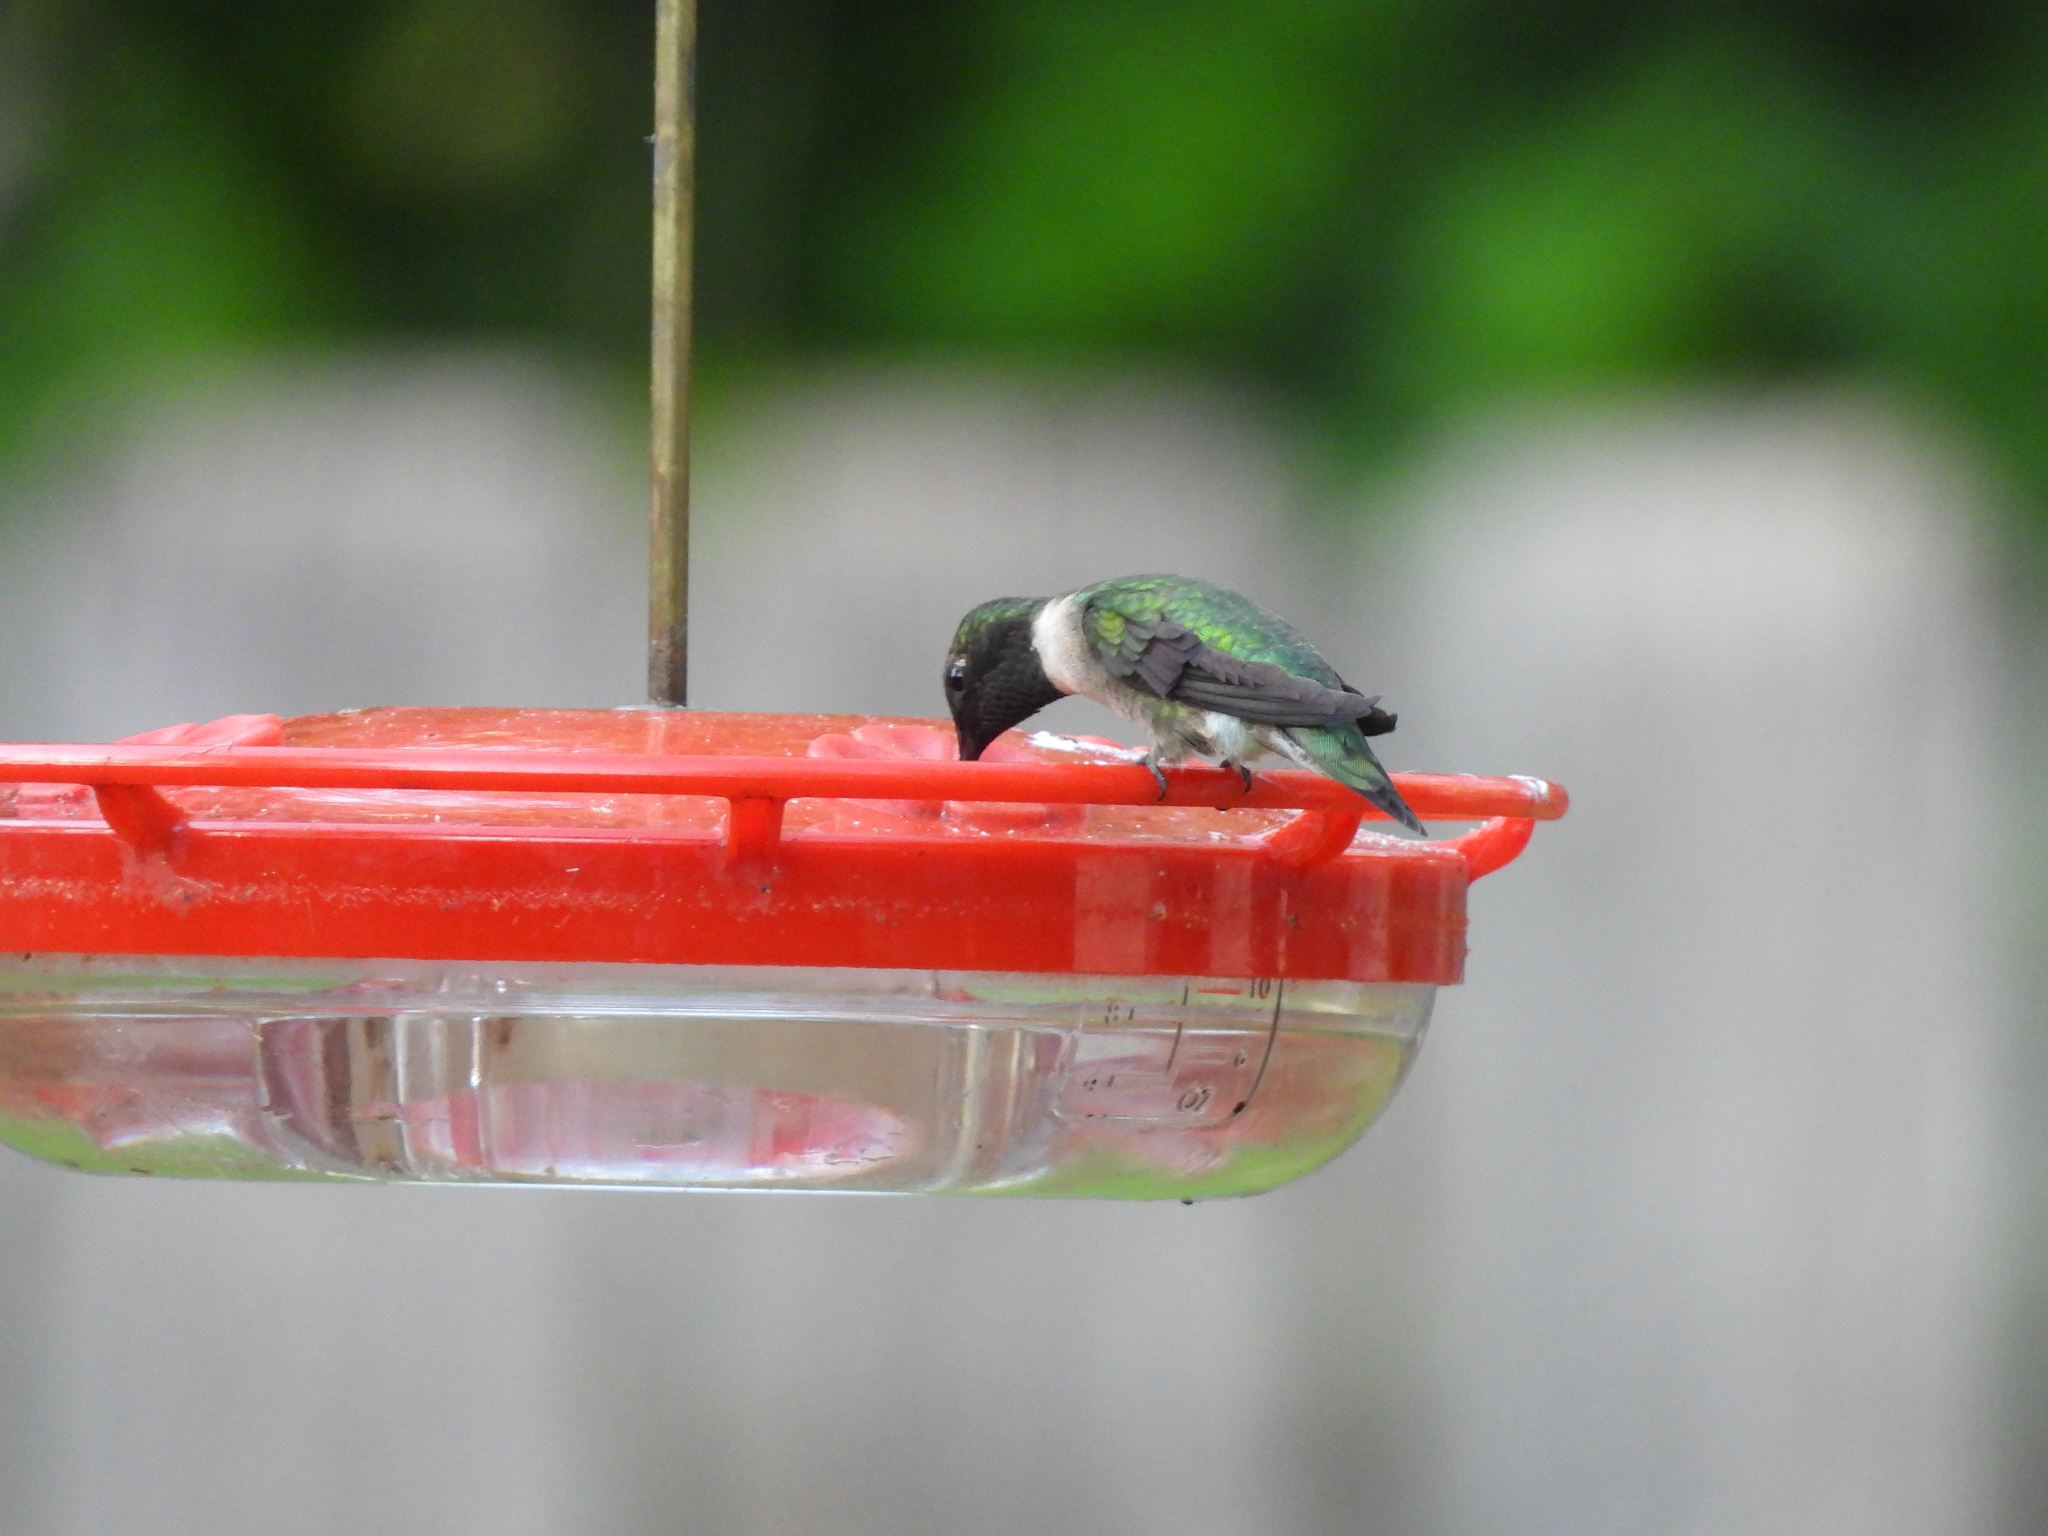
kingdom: Animalia
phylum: Chordata
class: Aves
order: Apodiformes
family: Trochilidae
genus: Archilochus
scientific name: Archilochus colubris
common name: Ruby-throated hummingbird
